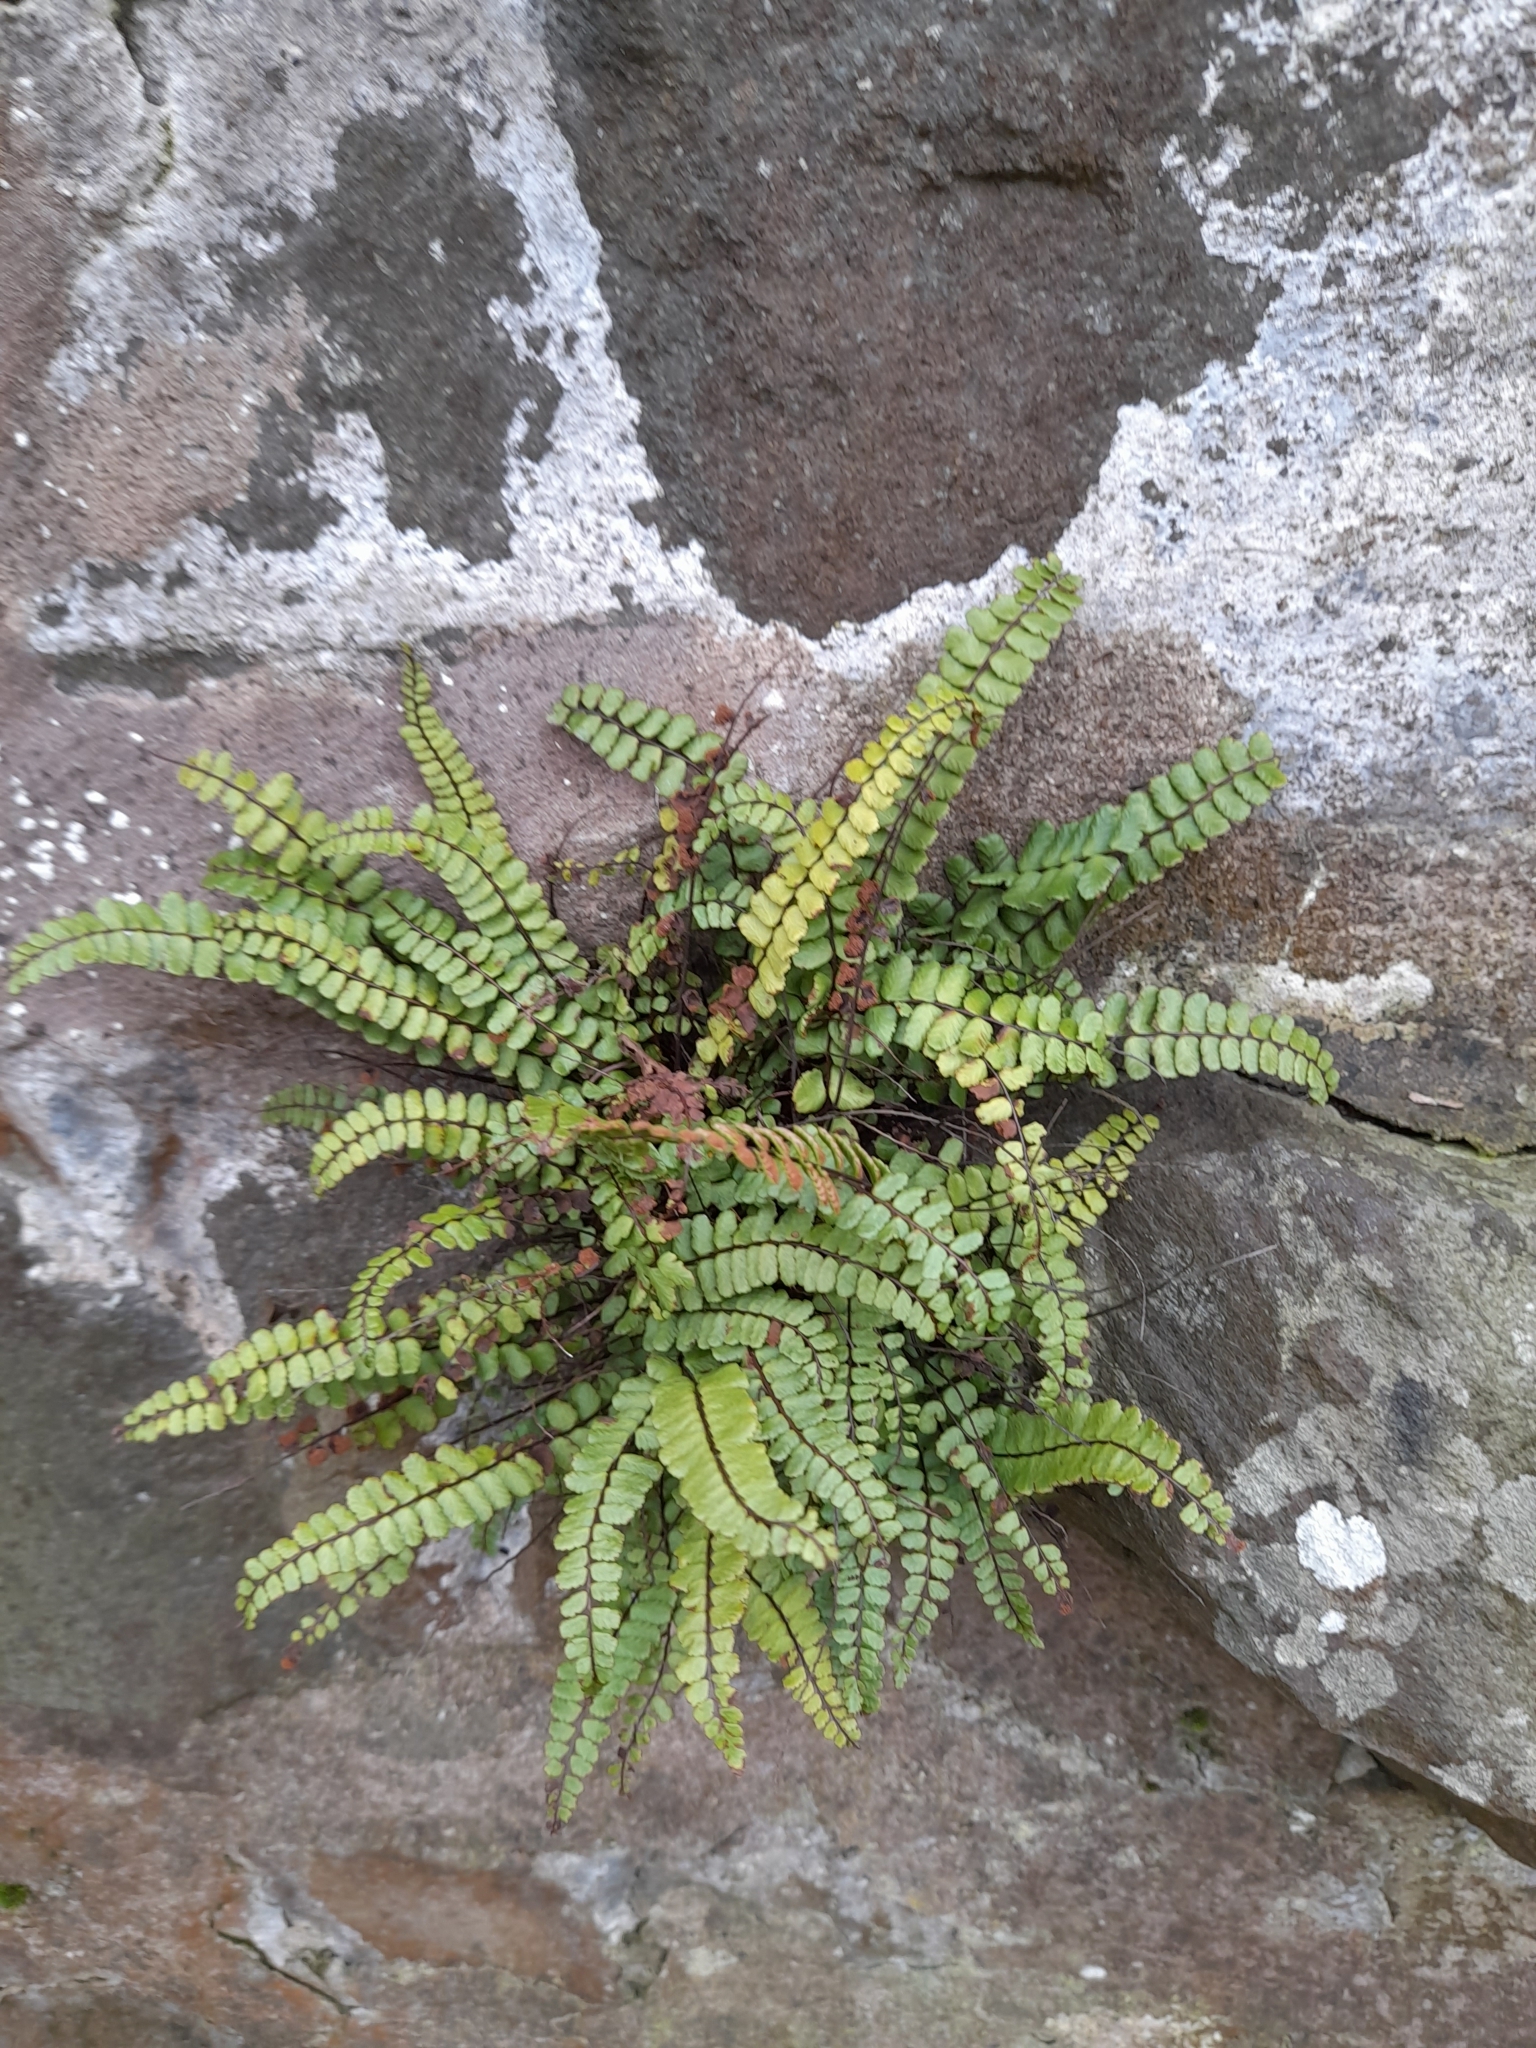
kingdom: Plantae
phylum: Tracheophyta
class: Polypodiopsida
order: Polypodiales
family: Aspleniaceae
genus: Asplenium
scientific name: Asplenium trichomanes
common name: Maidenhair spleenwort
